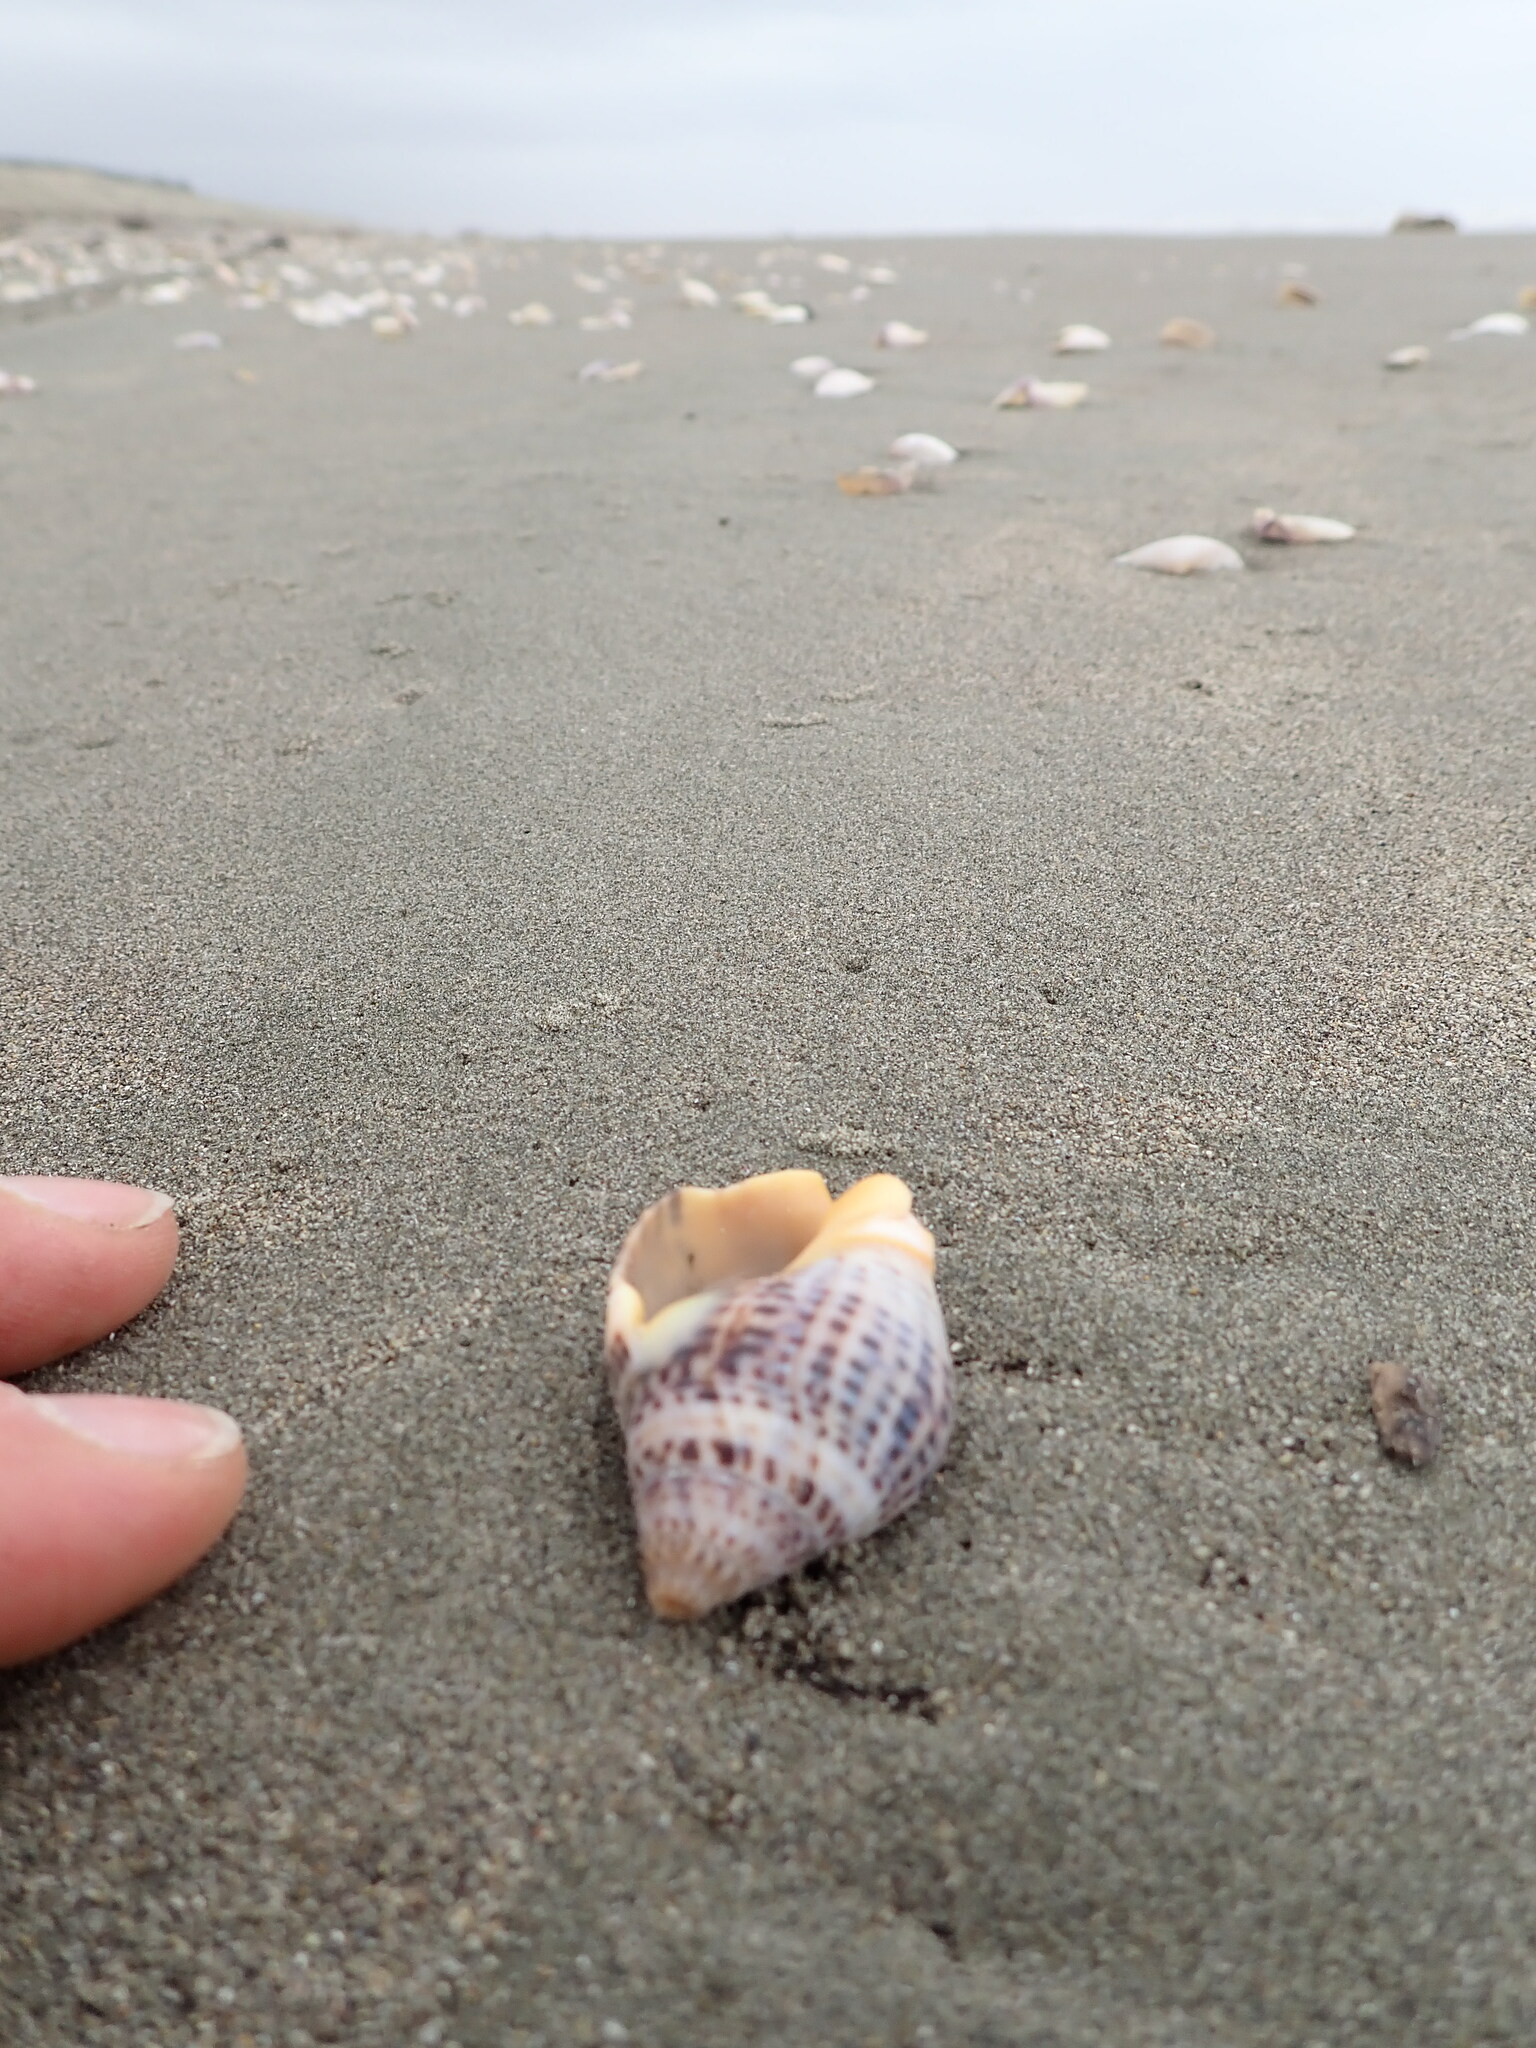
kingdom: Animalia
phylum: Mollusca
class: Gastropoda
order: Neogastropoda
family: Cominellidae
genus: Cominella
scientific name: Cominella adspersa
